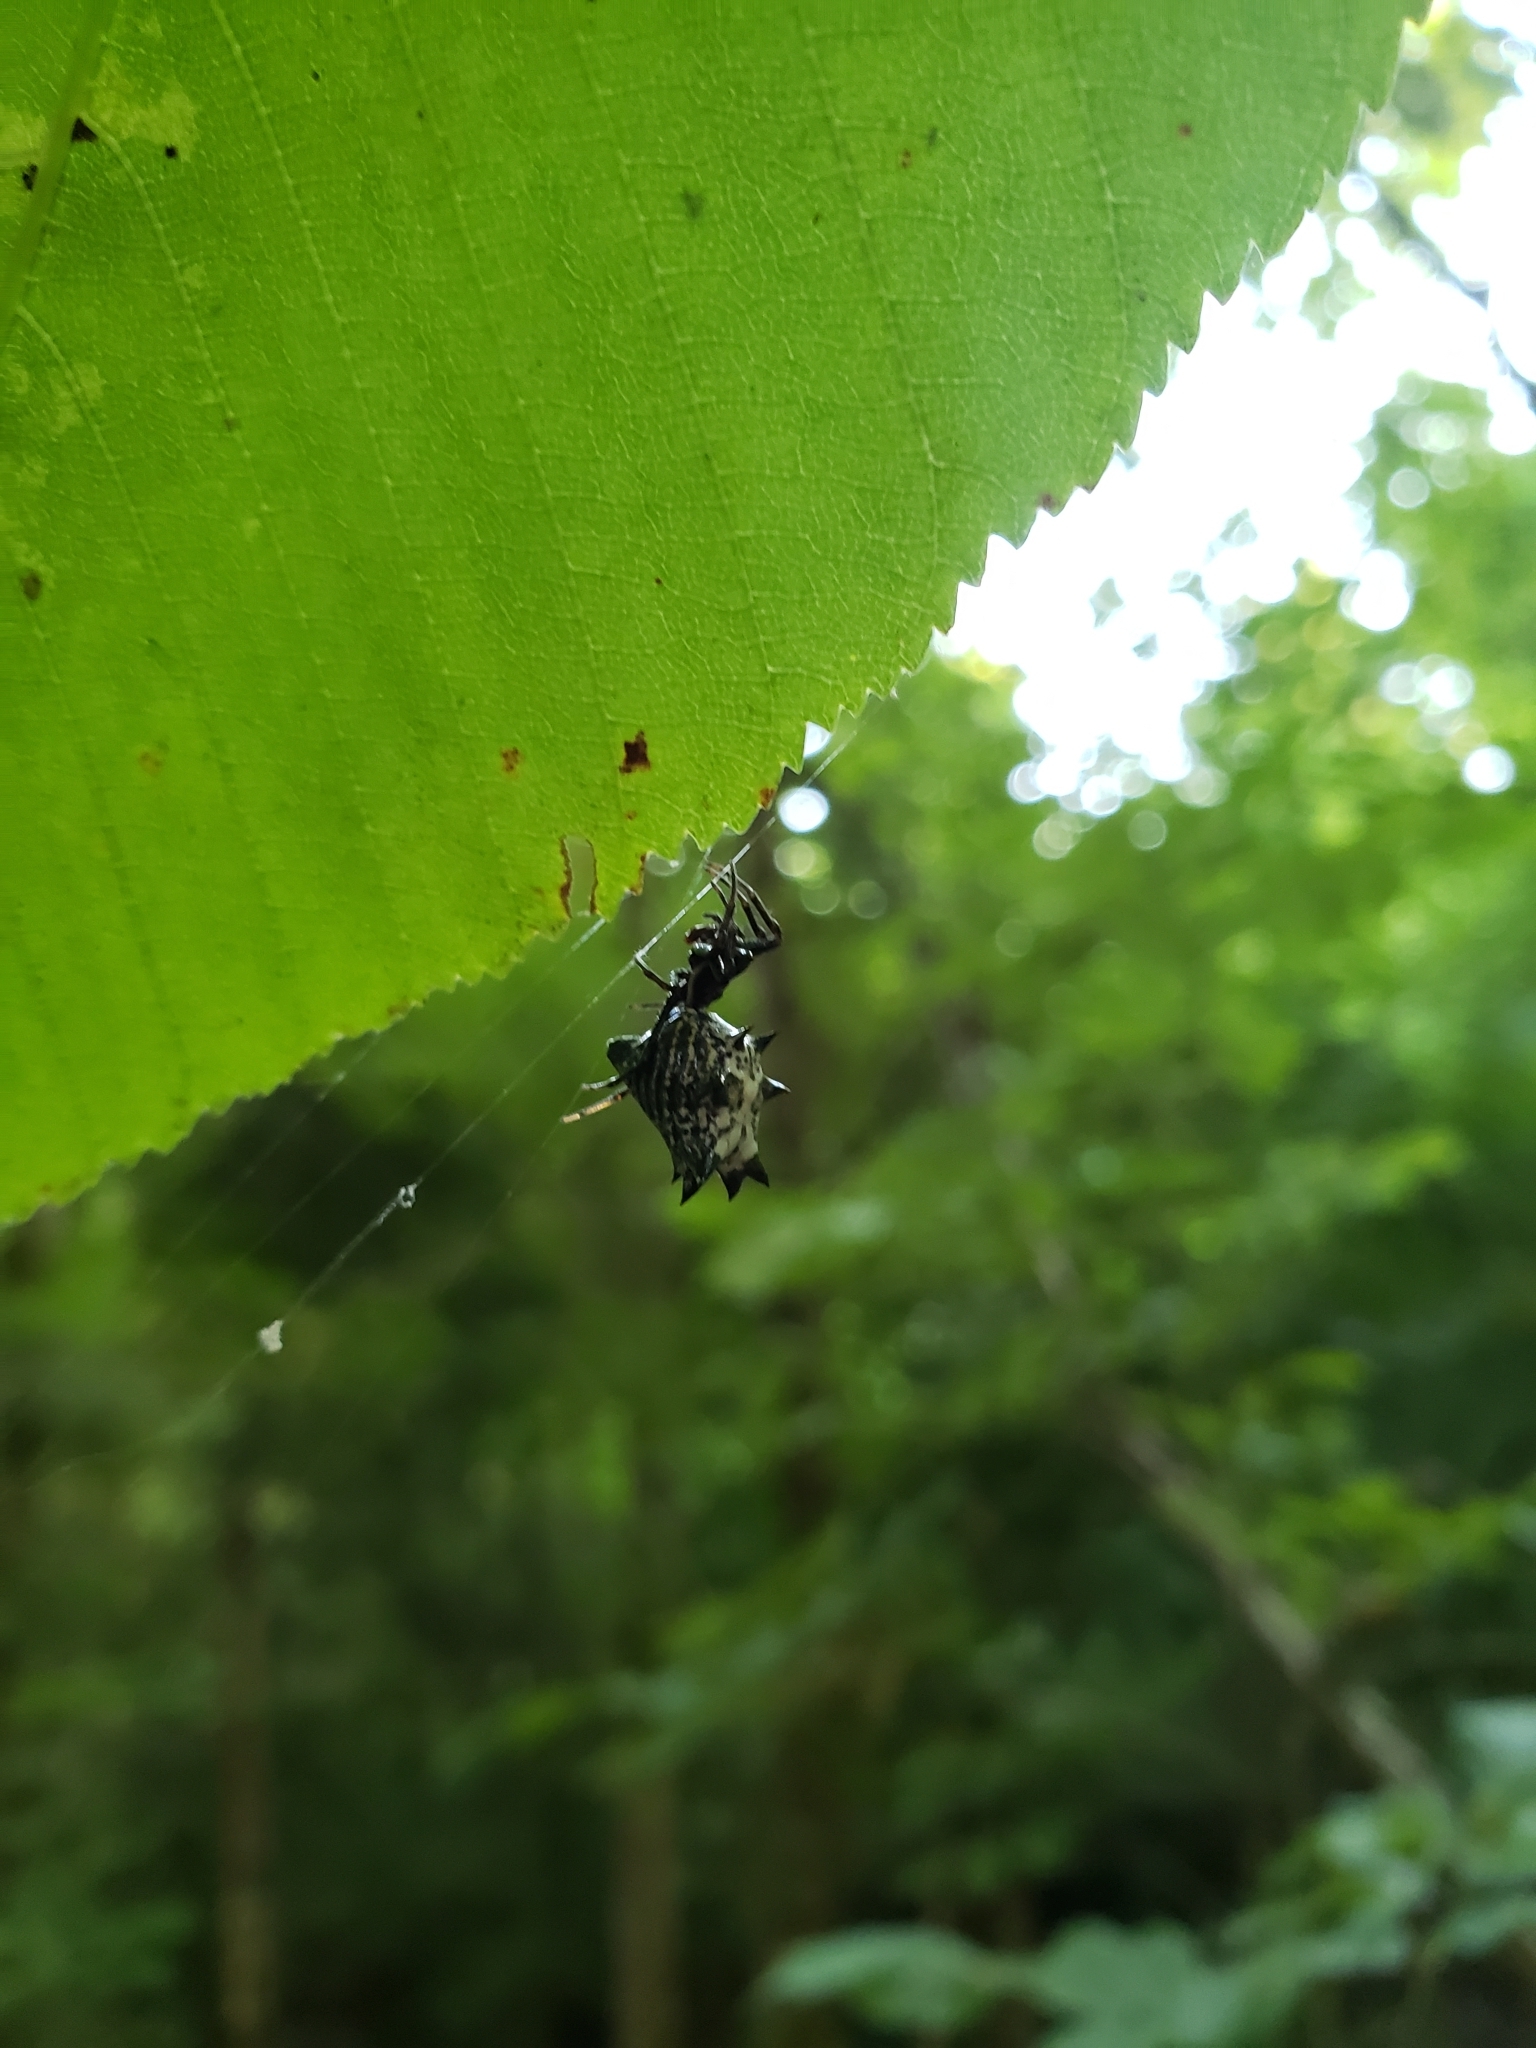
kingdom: Animalia
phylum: Arthropoda
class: Arachnida
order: Araneae
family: Araneidae
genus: Micrathena
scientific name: Micrathena gracilis
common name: Orb weavers
